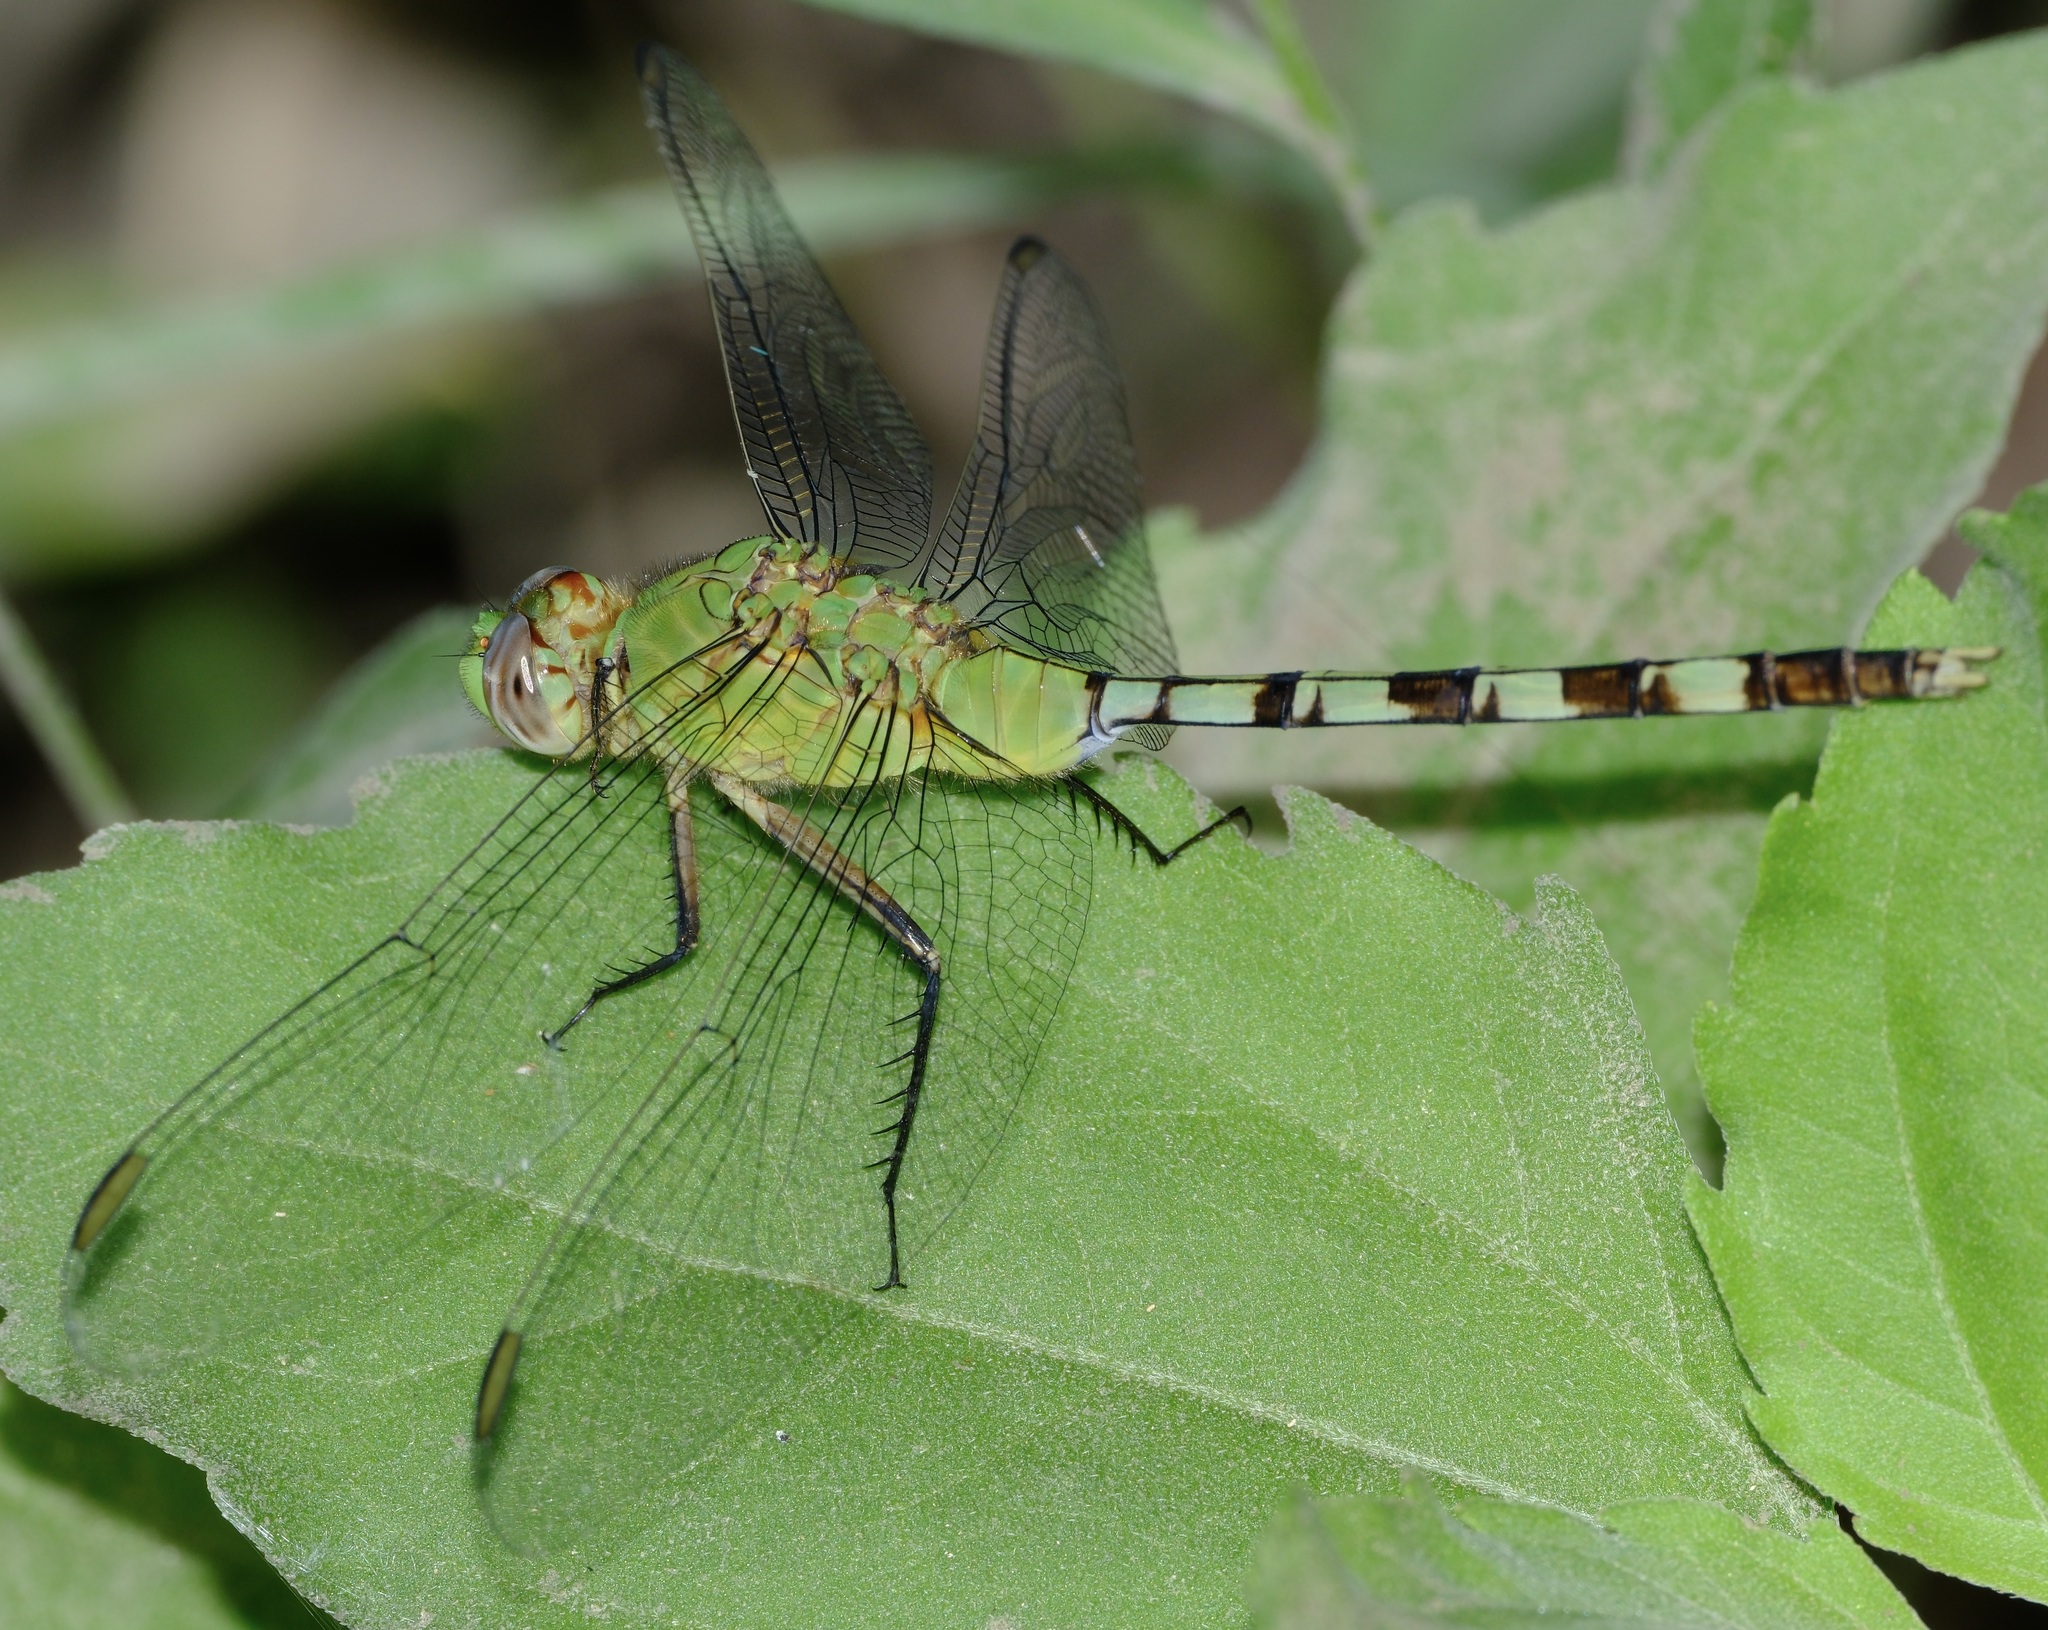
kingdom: Animalia
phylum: Arthropoda
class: Insecta
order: Odonata
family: Libellulidae
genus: Erythemis
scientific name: Erythemis vesiculosa
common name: Great pondhawk
